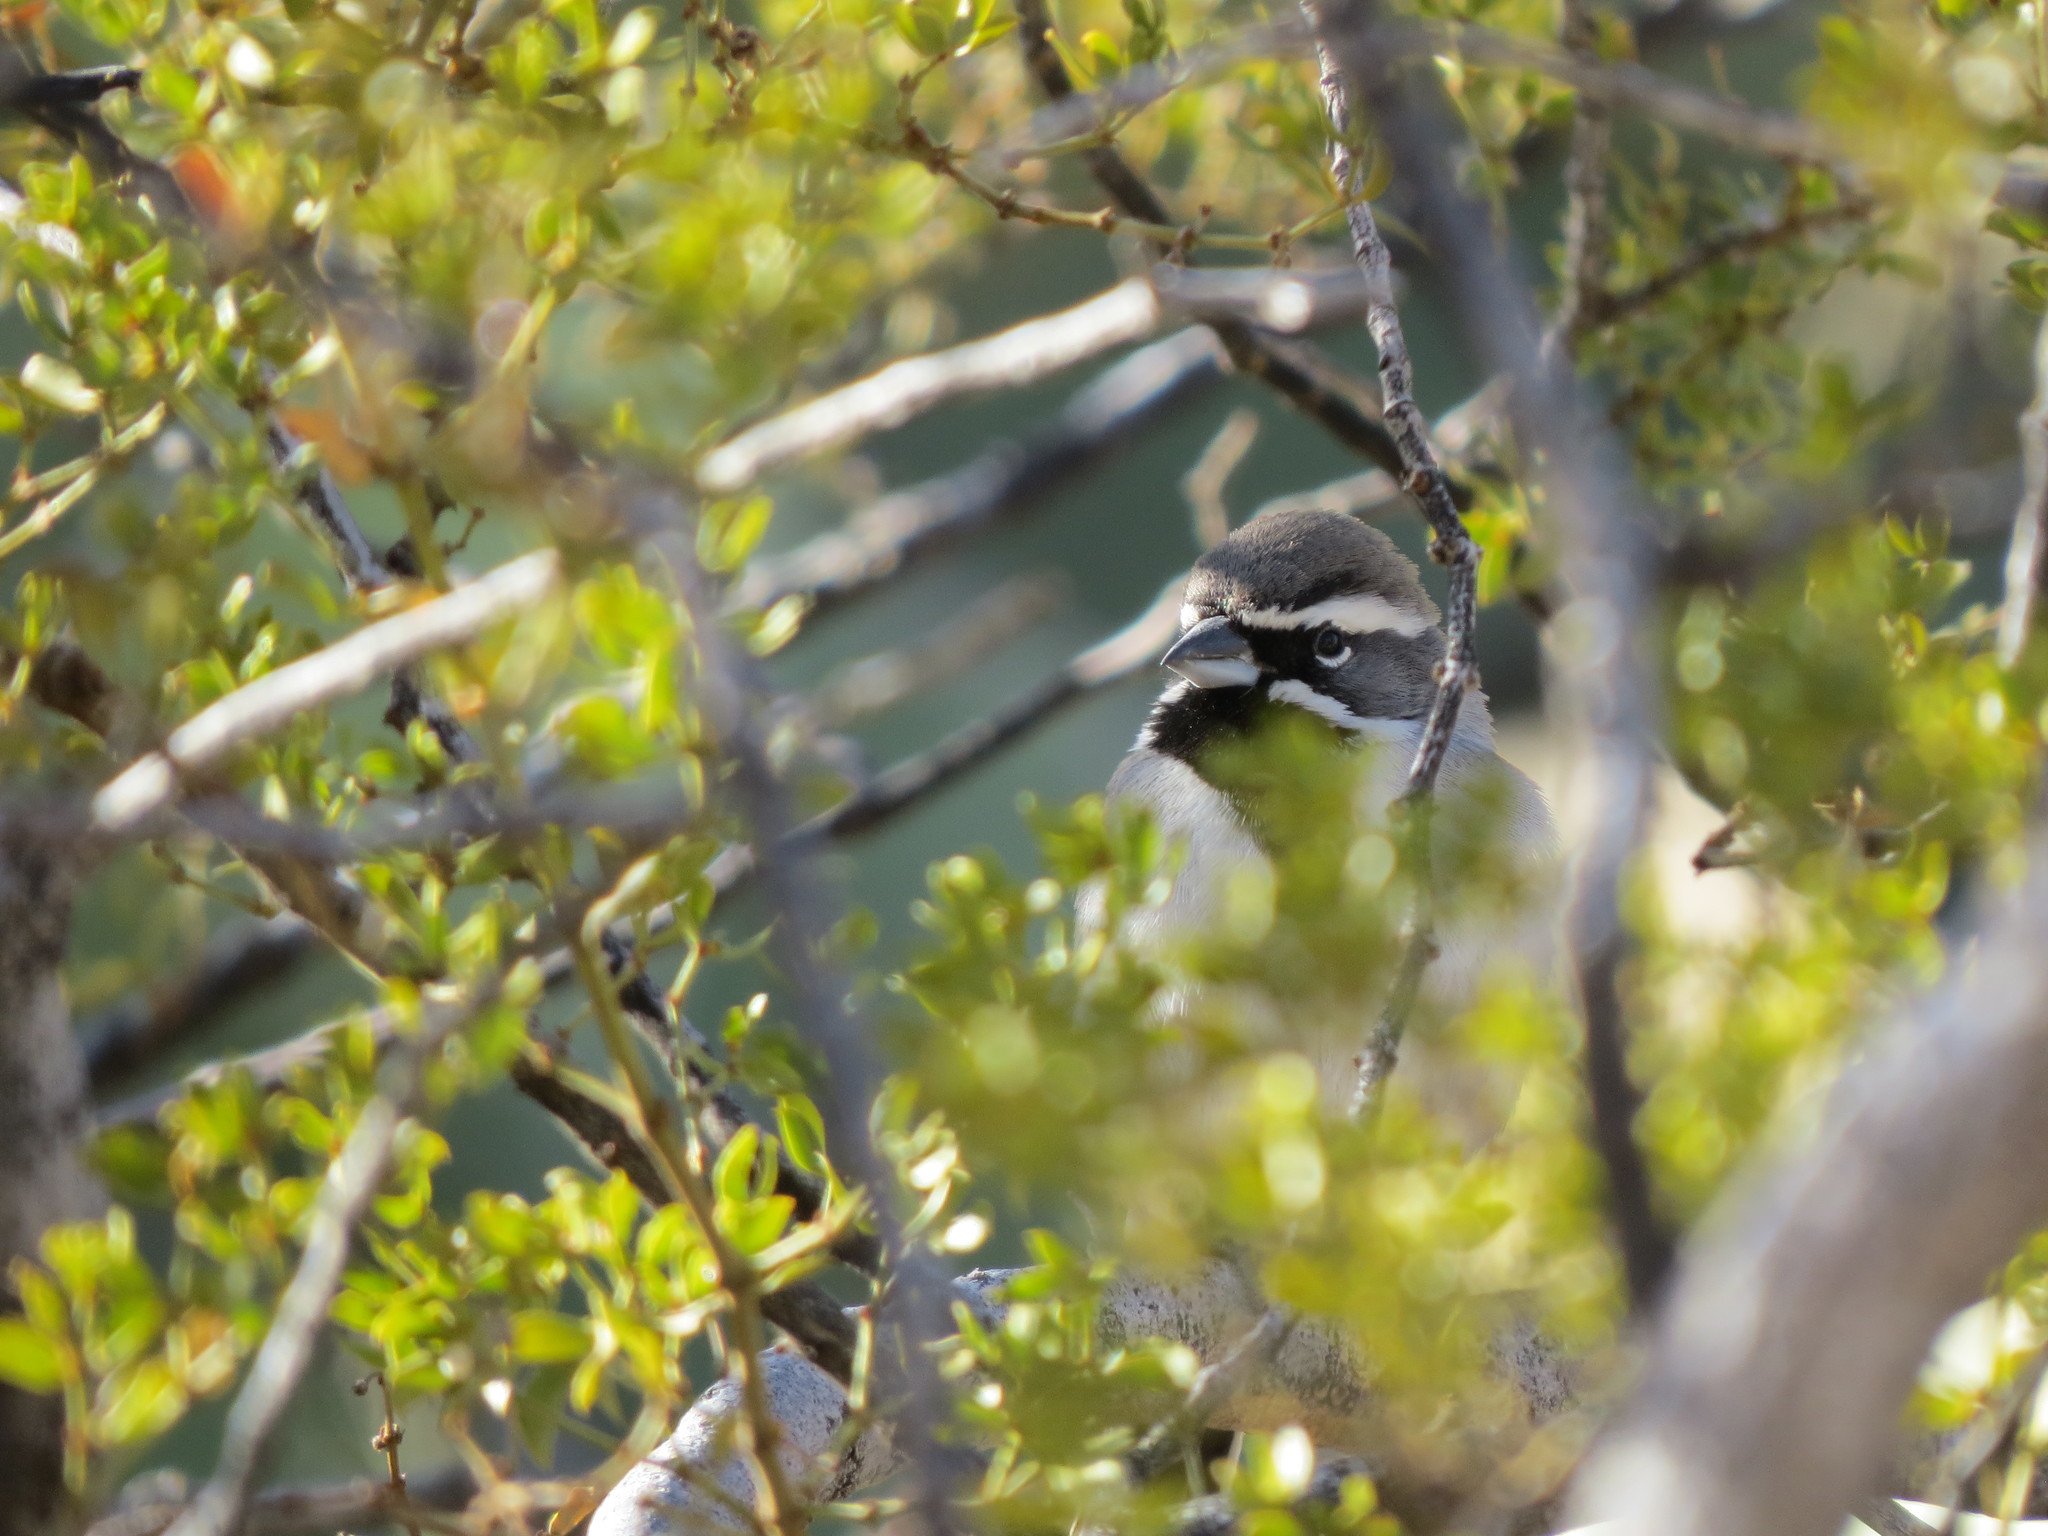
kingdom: Animalia
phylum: Chordata
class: Aves
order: Passeriformes
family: Passerellidae
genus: Amphispiza
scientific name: Amphispiza bilineata
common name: Black-throated sparrow
